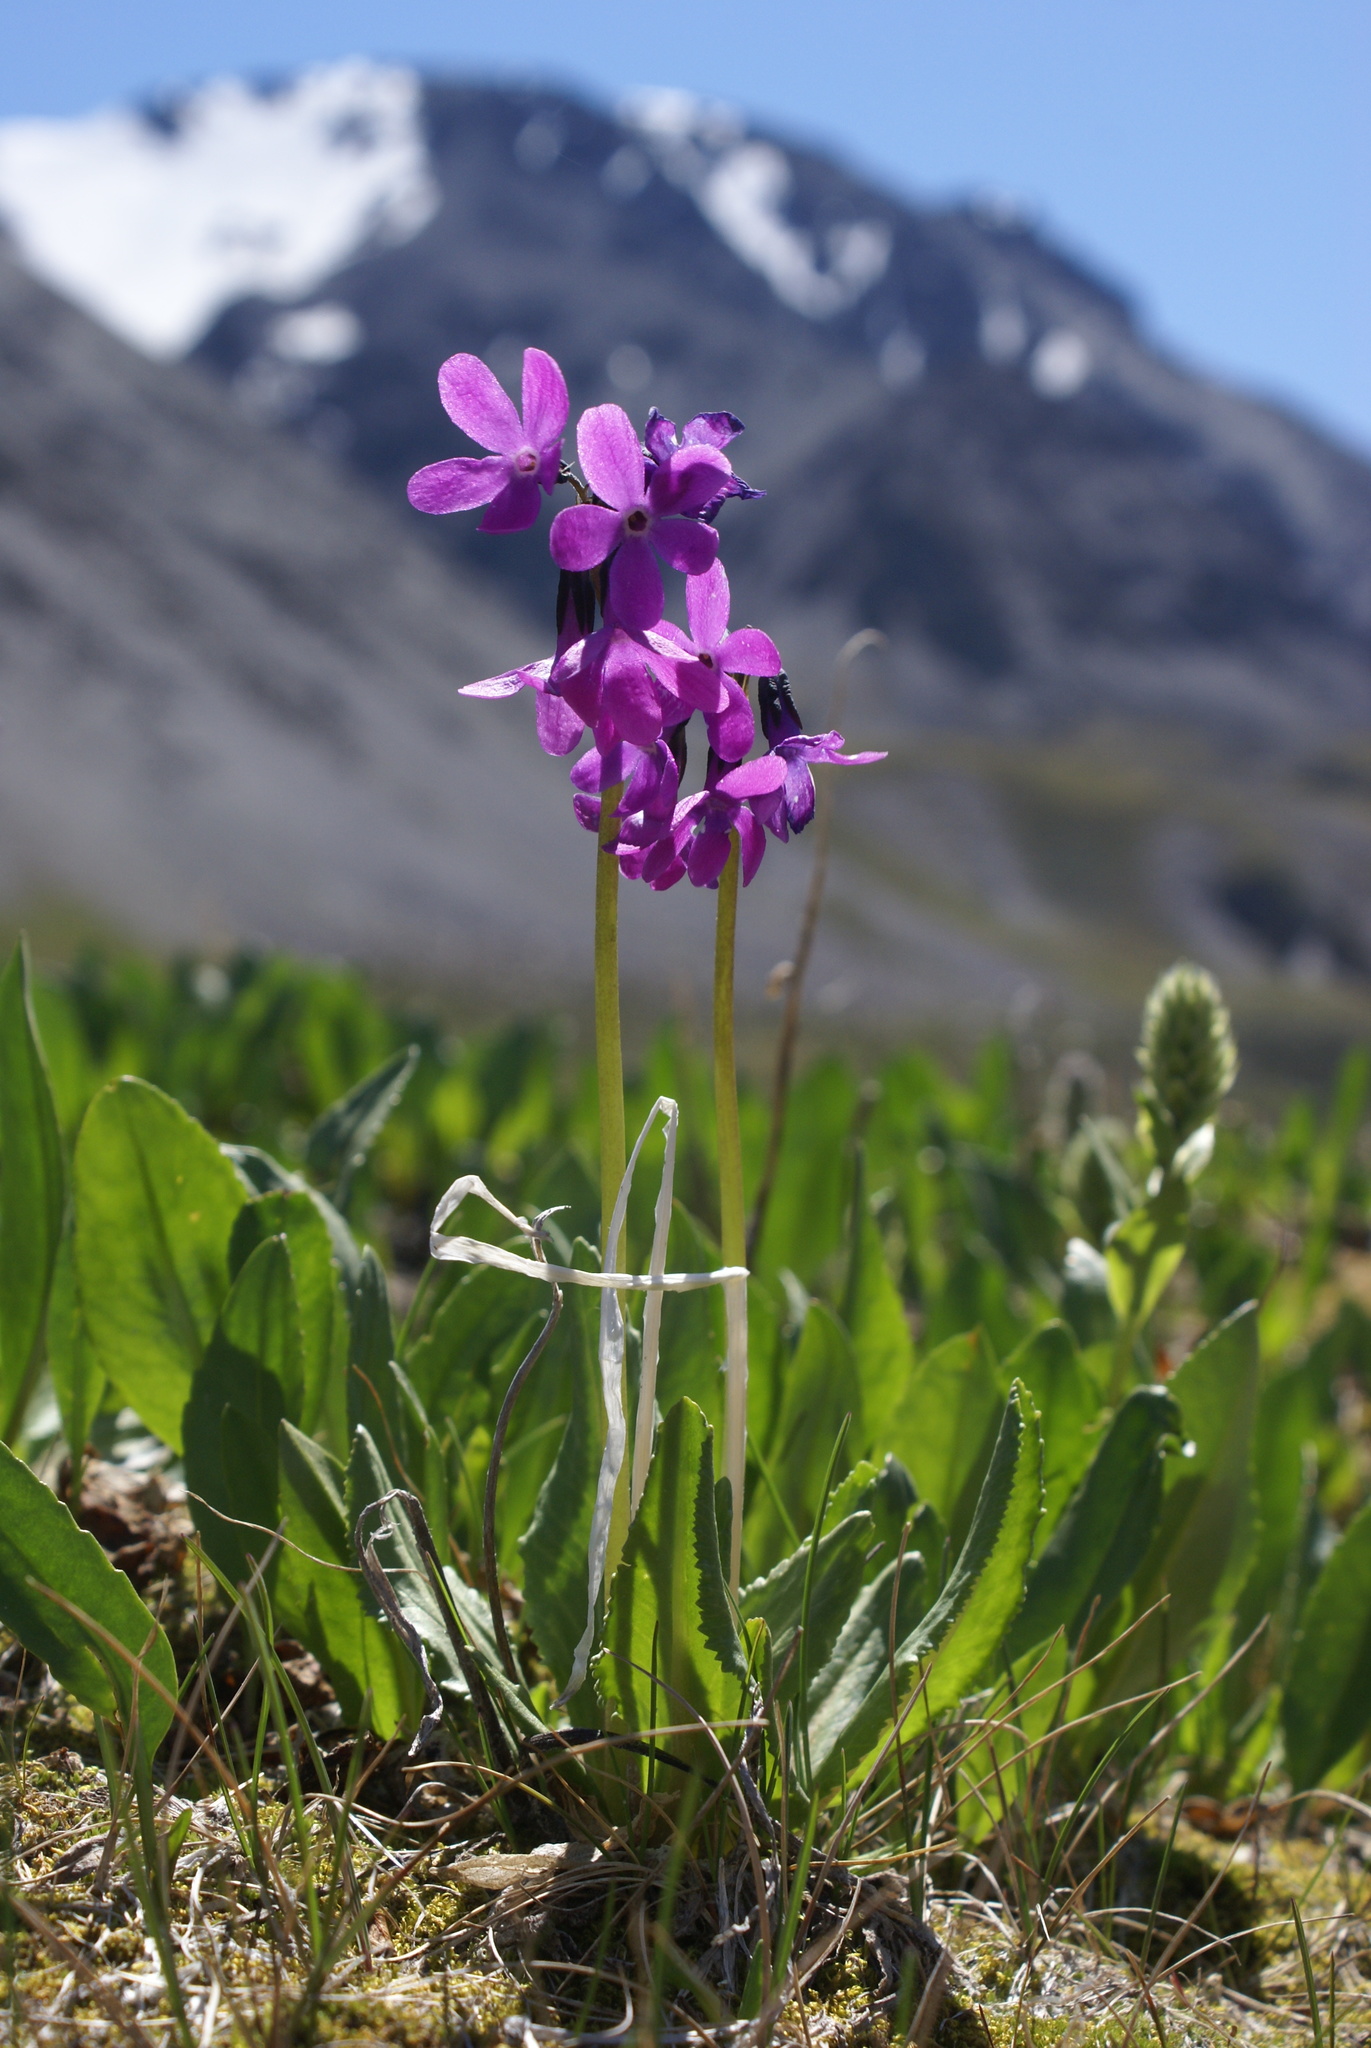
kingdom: Plantae
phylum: Tracheophyta
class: Magnoliopsida
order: Ericales
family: Primulaceae
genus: Primula
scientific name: Primula nivalis
